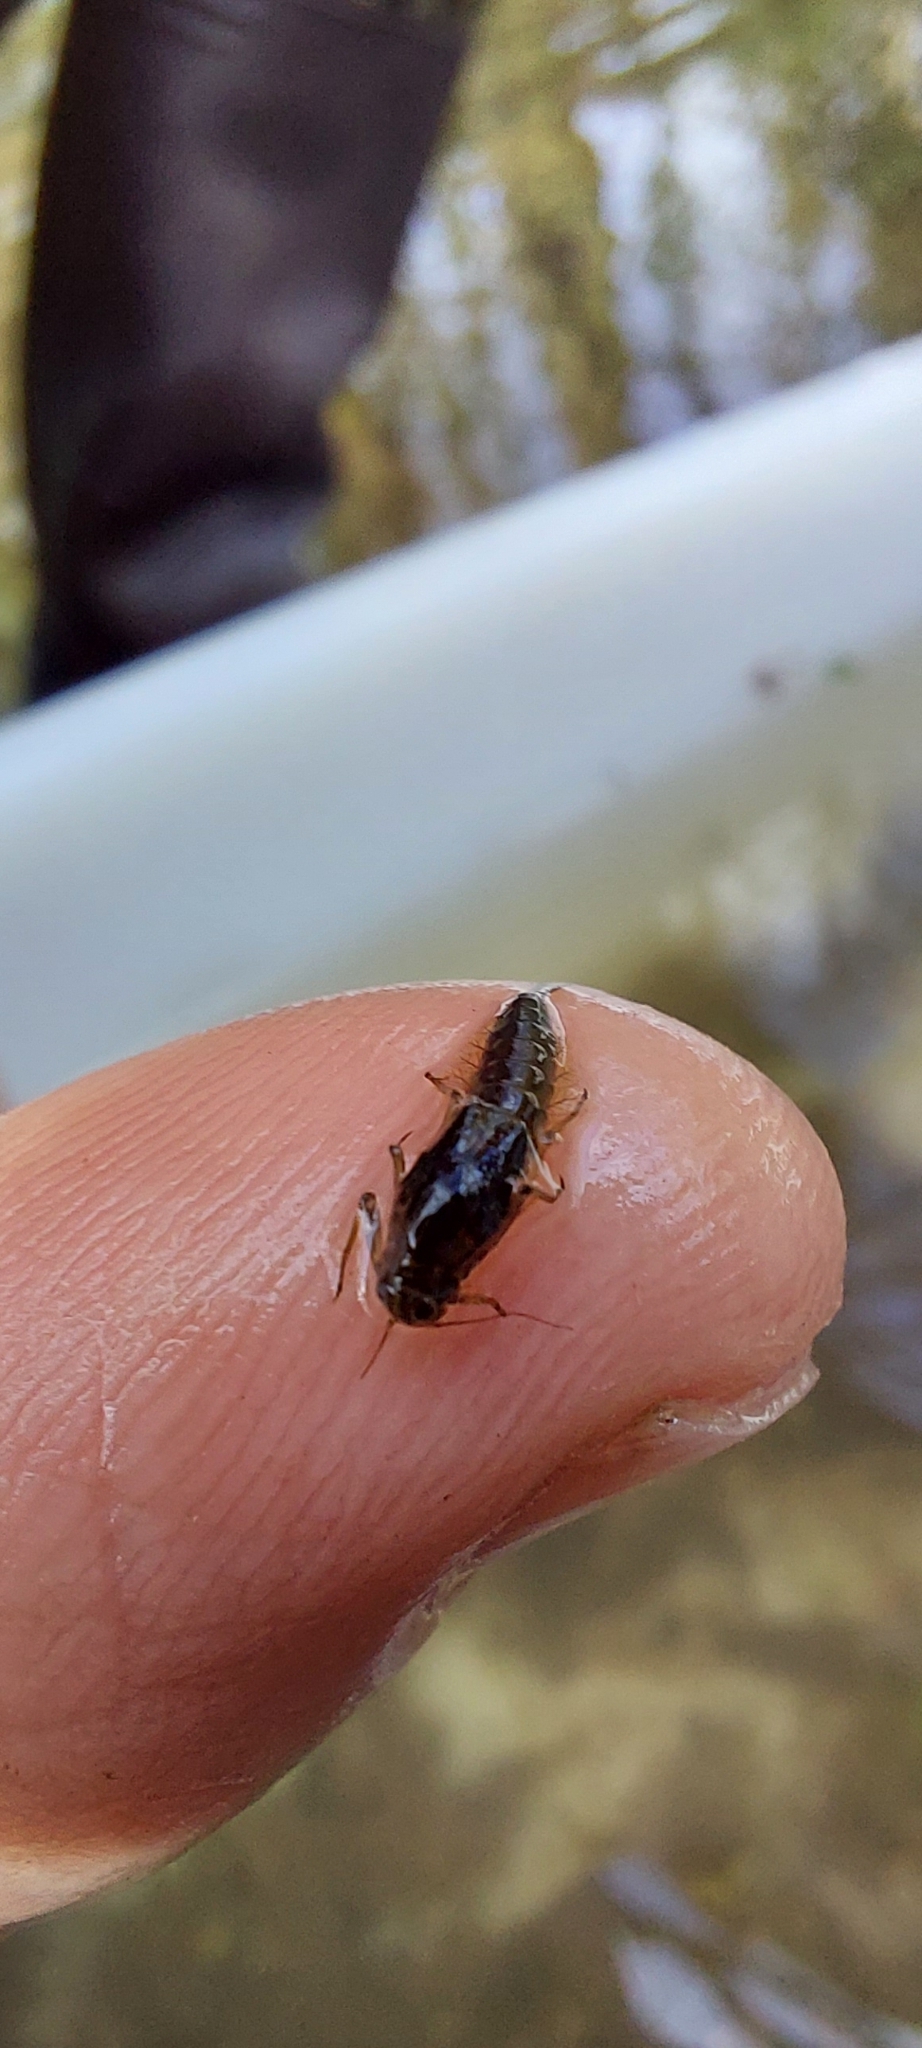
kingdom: Animalia
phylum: Arthropoda
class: Insecta
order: Ephemeroptera
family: Baetidae
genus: Baetis
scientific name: Baetis rhodani
